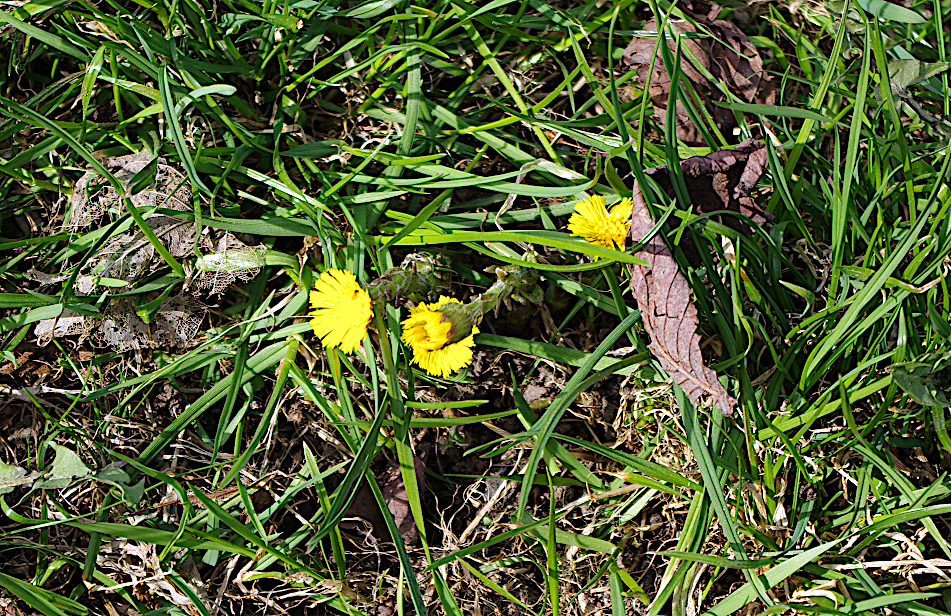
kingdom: Plantae
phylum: Tracheophyta
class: Magnoliopsida
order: Asterales
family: Asteraceae
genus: Tussilago
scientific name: Tussilago farfara
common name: Coltsfoot
